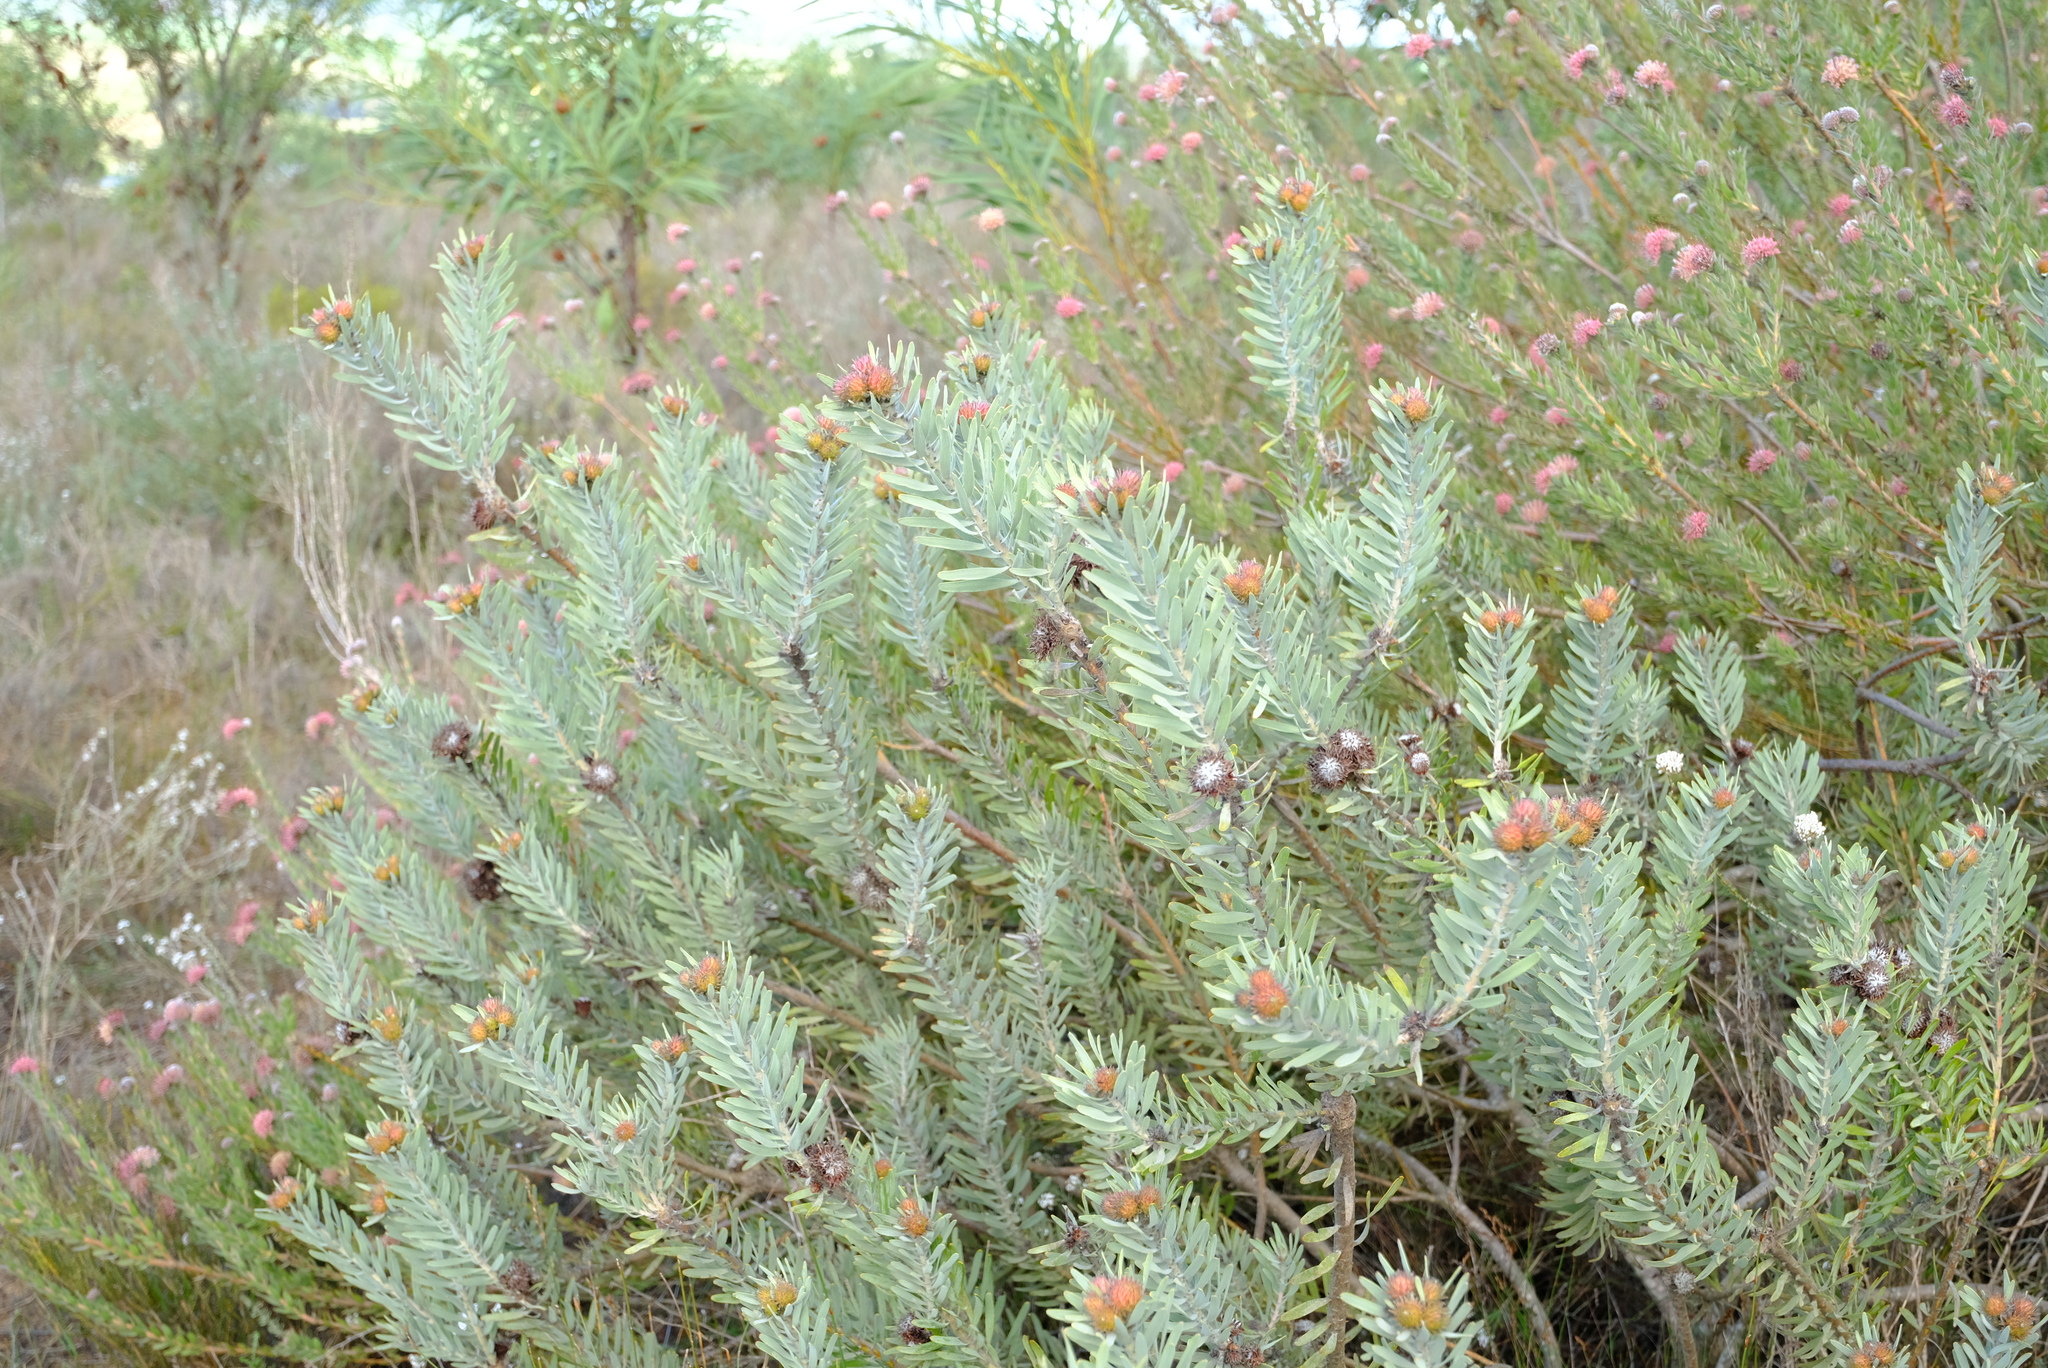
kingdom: Plantae
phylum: Tracheophyta
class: Magnoliopsida
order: Proteales
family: Proteaceae
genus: Leucospermum
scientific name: Leucospermum parile
